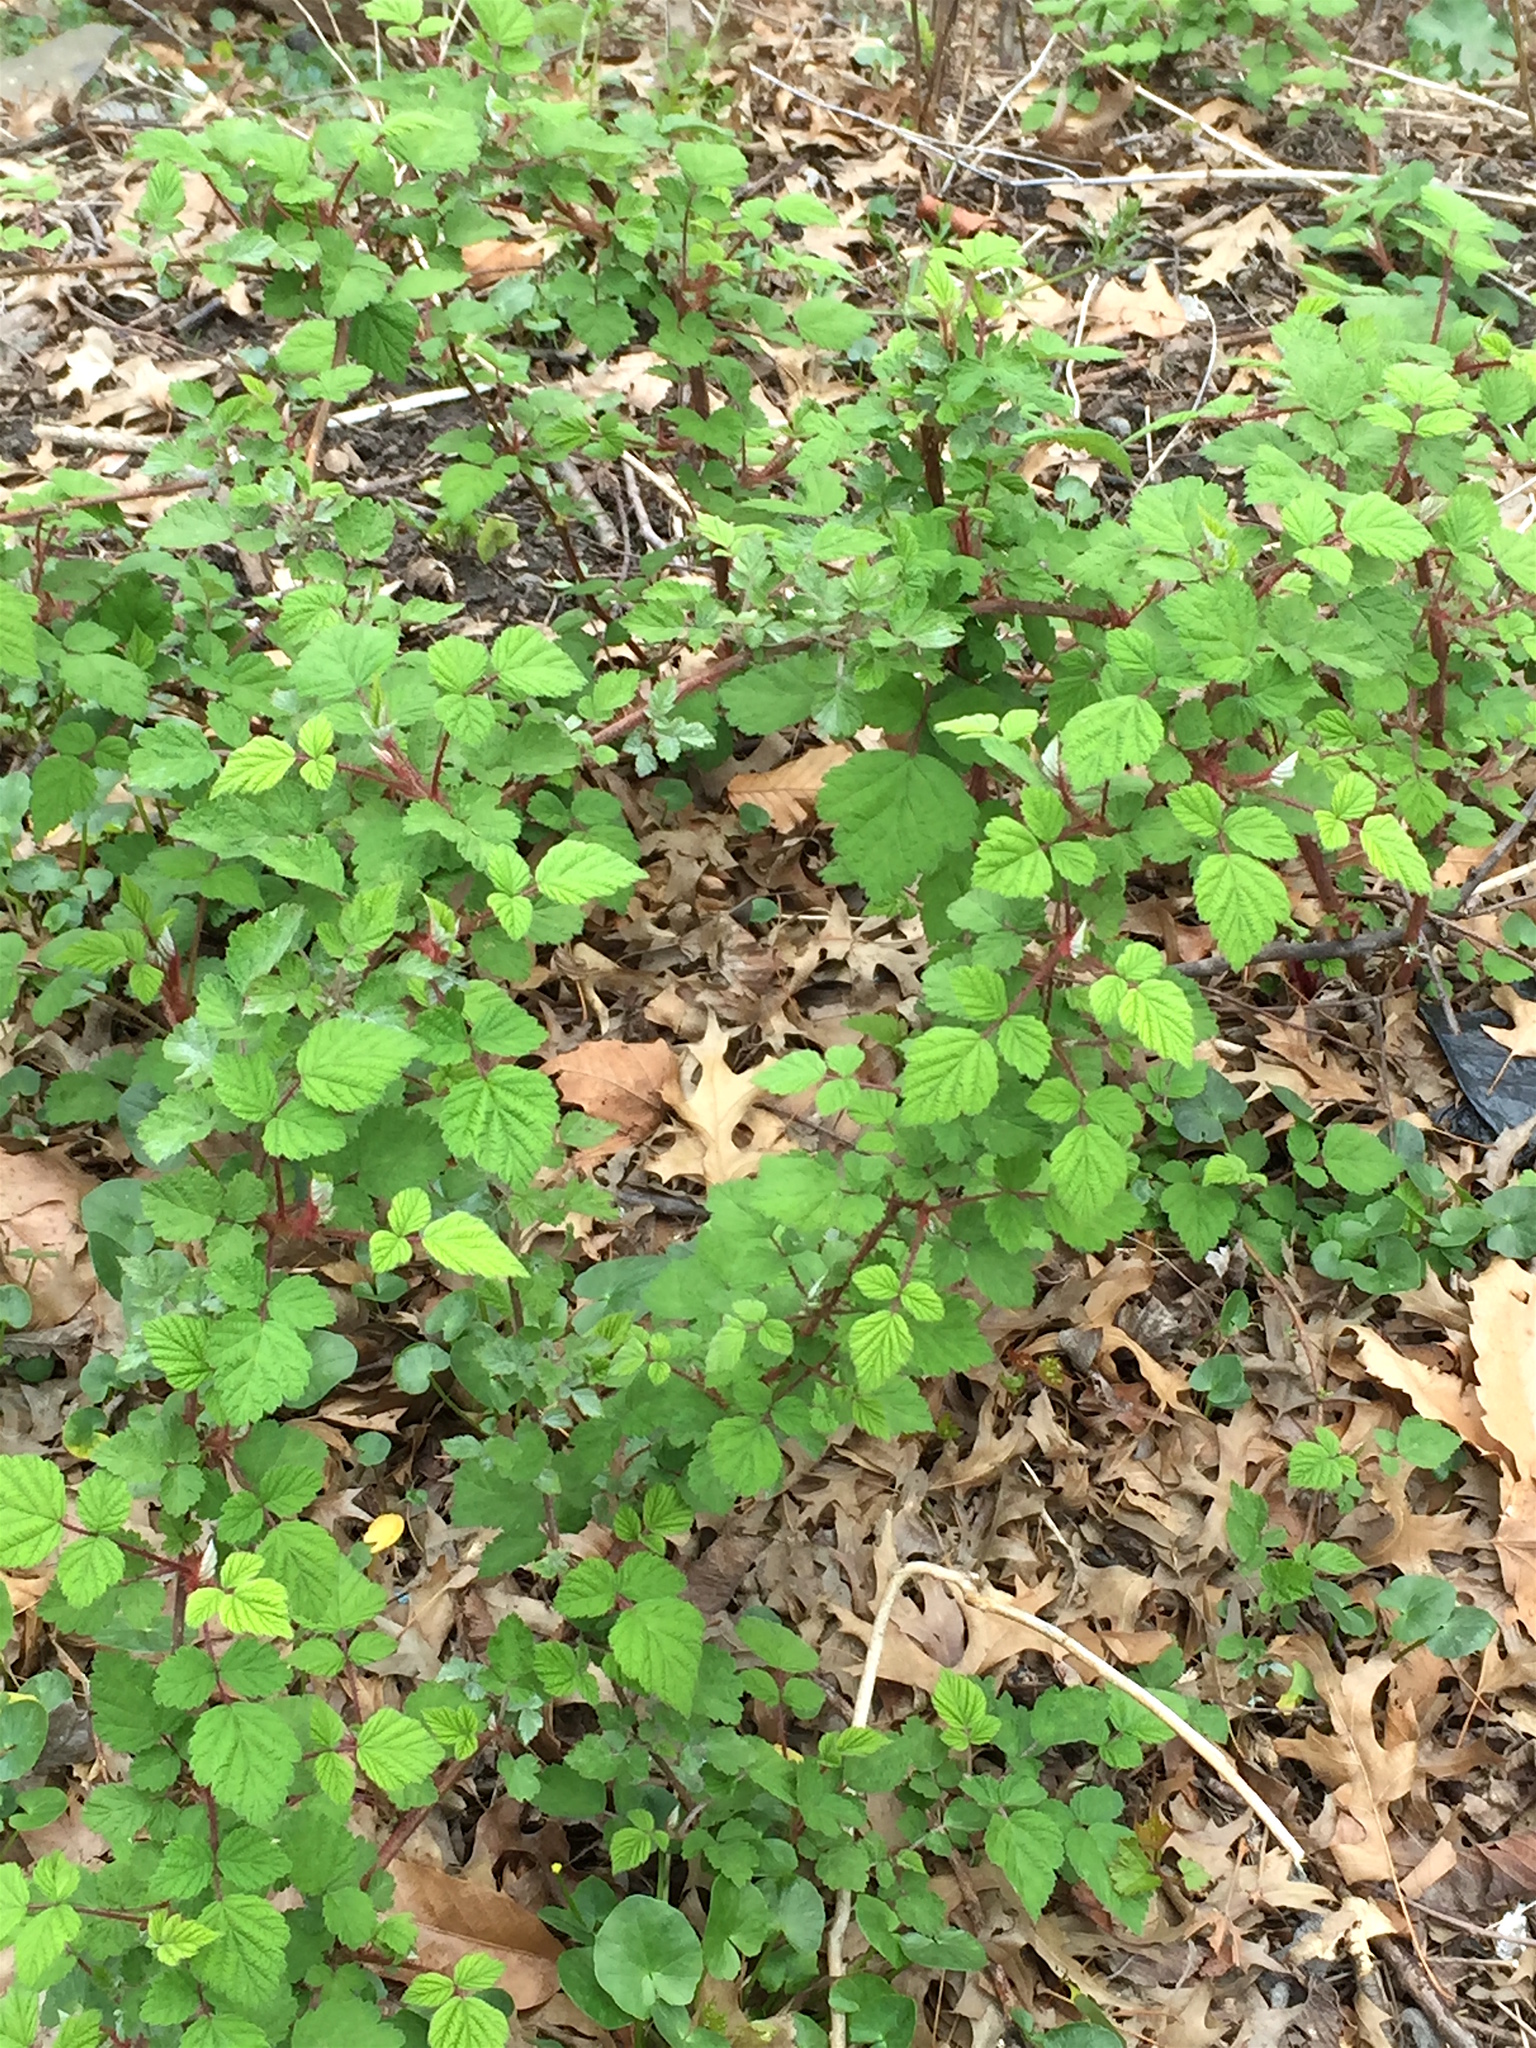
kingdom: Plantae
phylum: Tracheophyta
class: Magnoliopsida
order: Rosales
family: Rosaceae
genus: Rubus
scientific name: Rubus phoenicolasius
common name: Japanese wineberry
